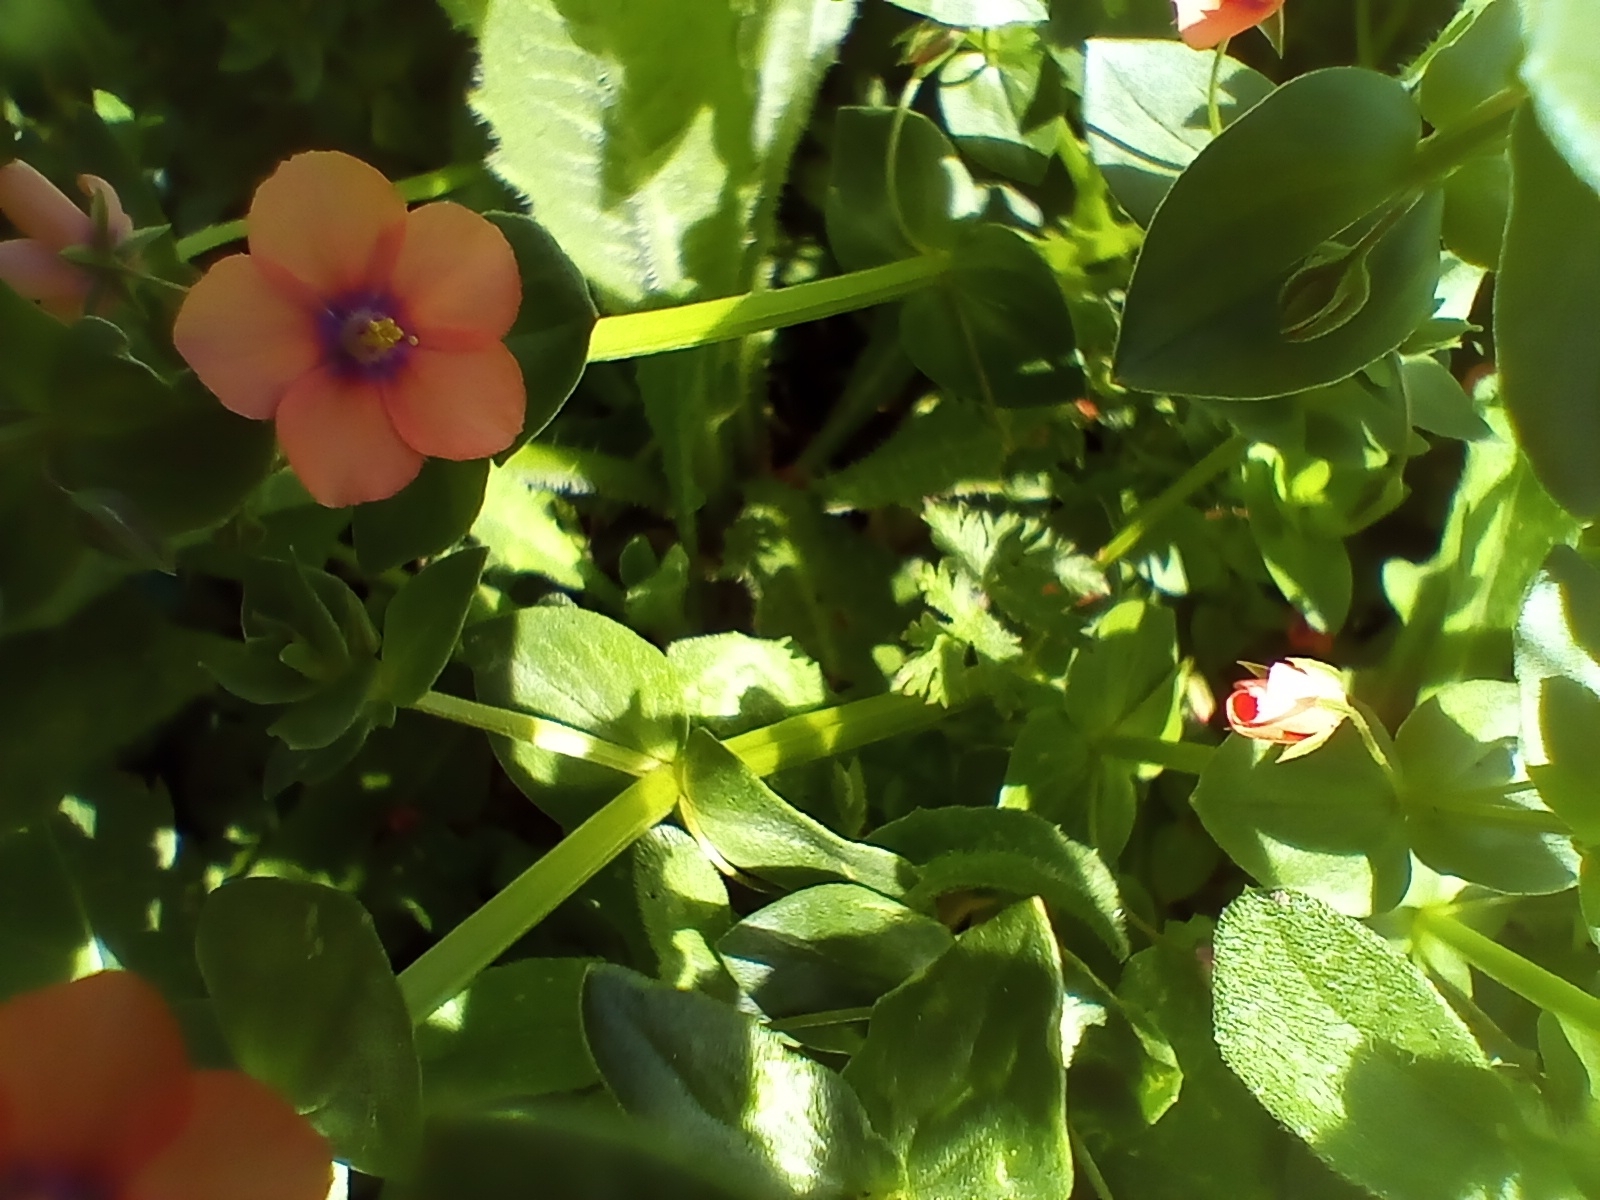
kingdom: Plantae
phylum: Tracheophyta
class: Magnoliopsida
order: Ericales
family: Primulaceae
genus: Lysimachia
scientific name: Lysimachia arvensis
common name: Scarlet pimpernel
